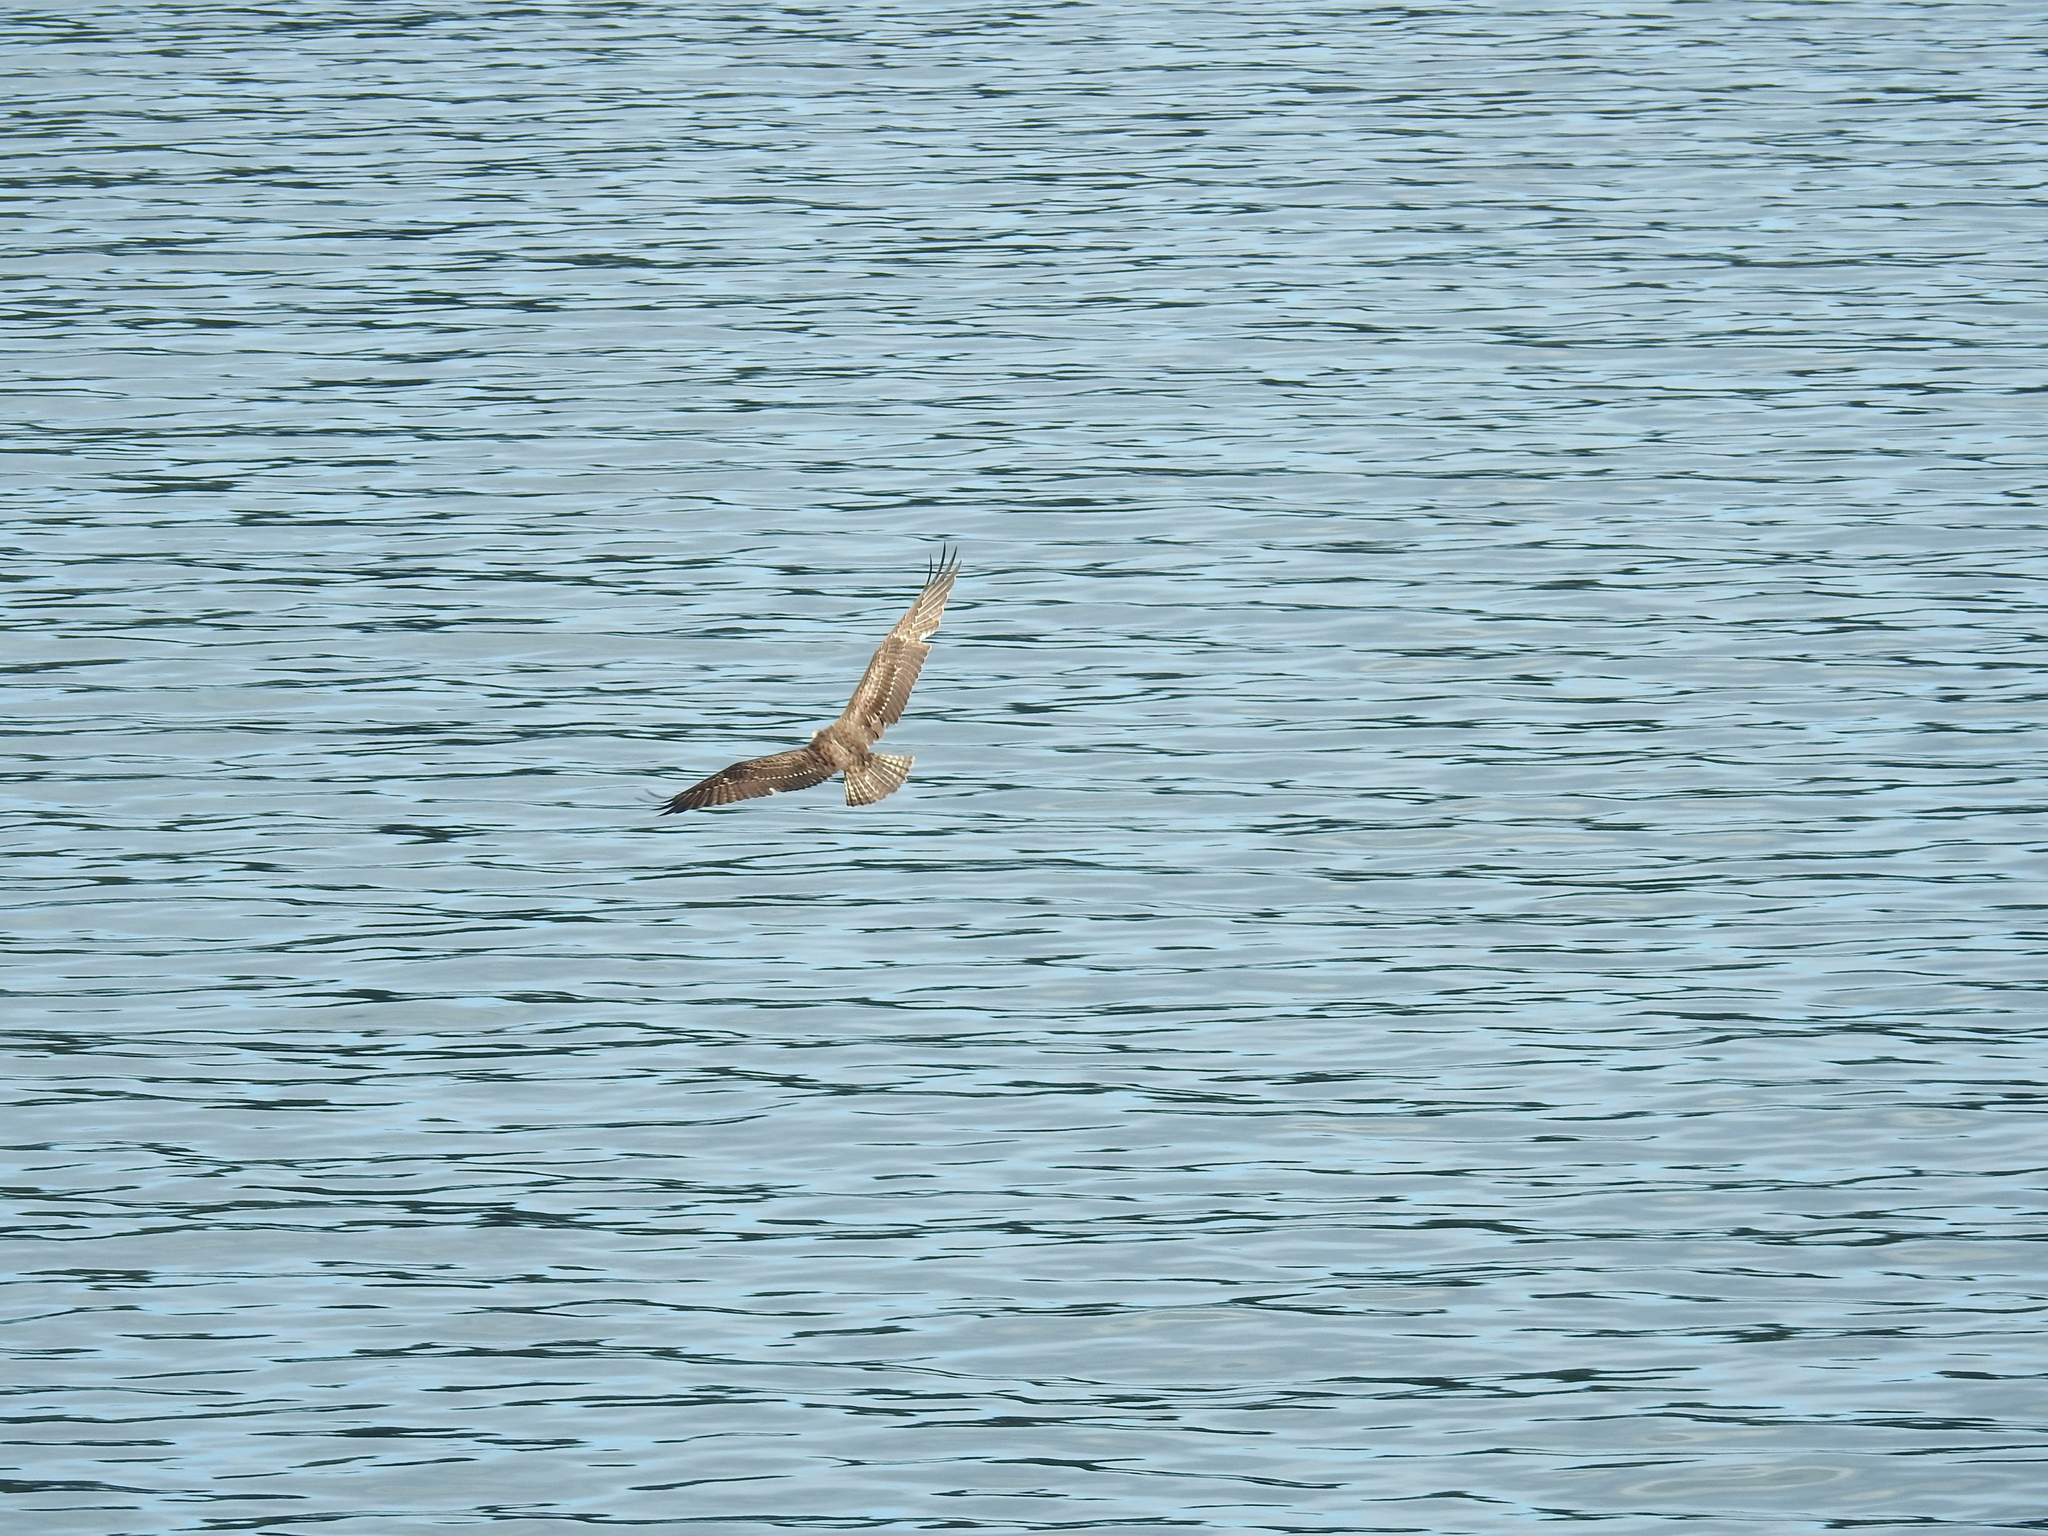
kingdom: Animalia
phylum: Chordata
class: Aves
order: Accipitriformes
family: Pandionidae
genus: Pandion
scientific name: Pandion haliaetus
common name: Osprey
